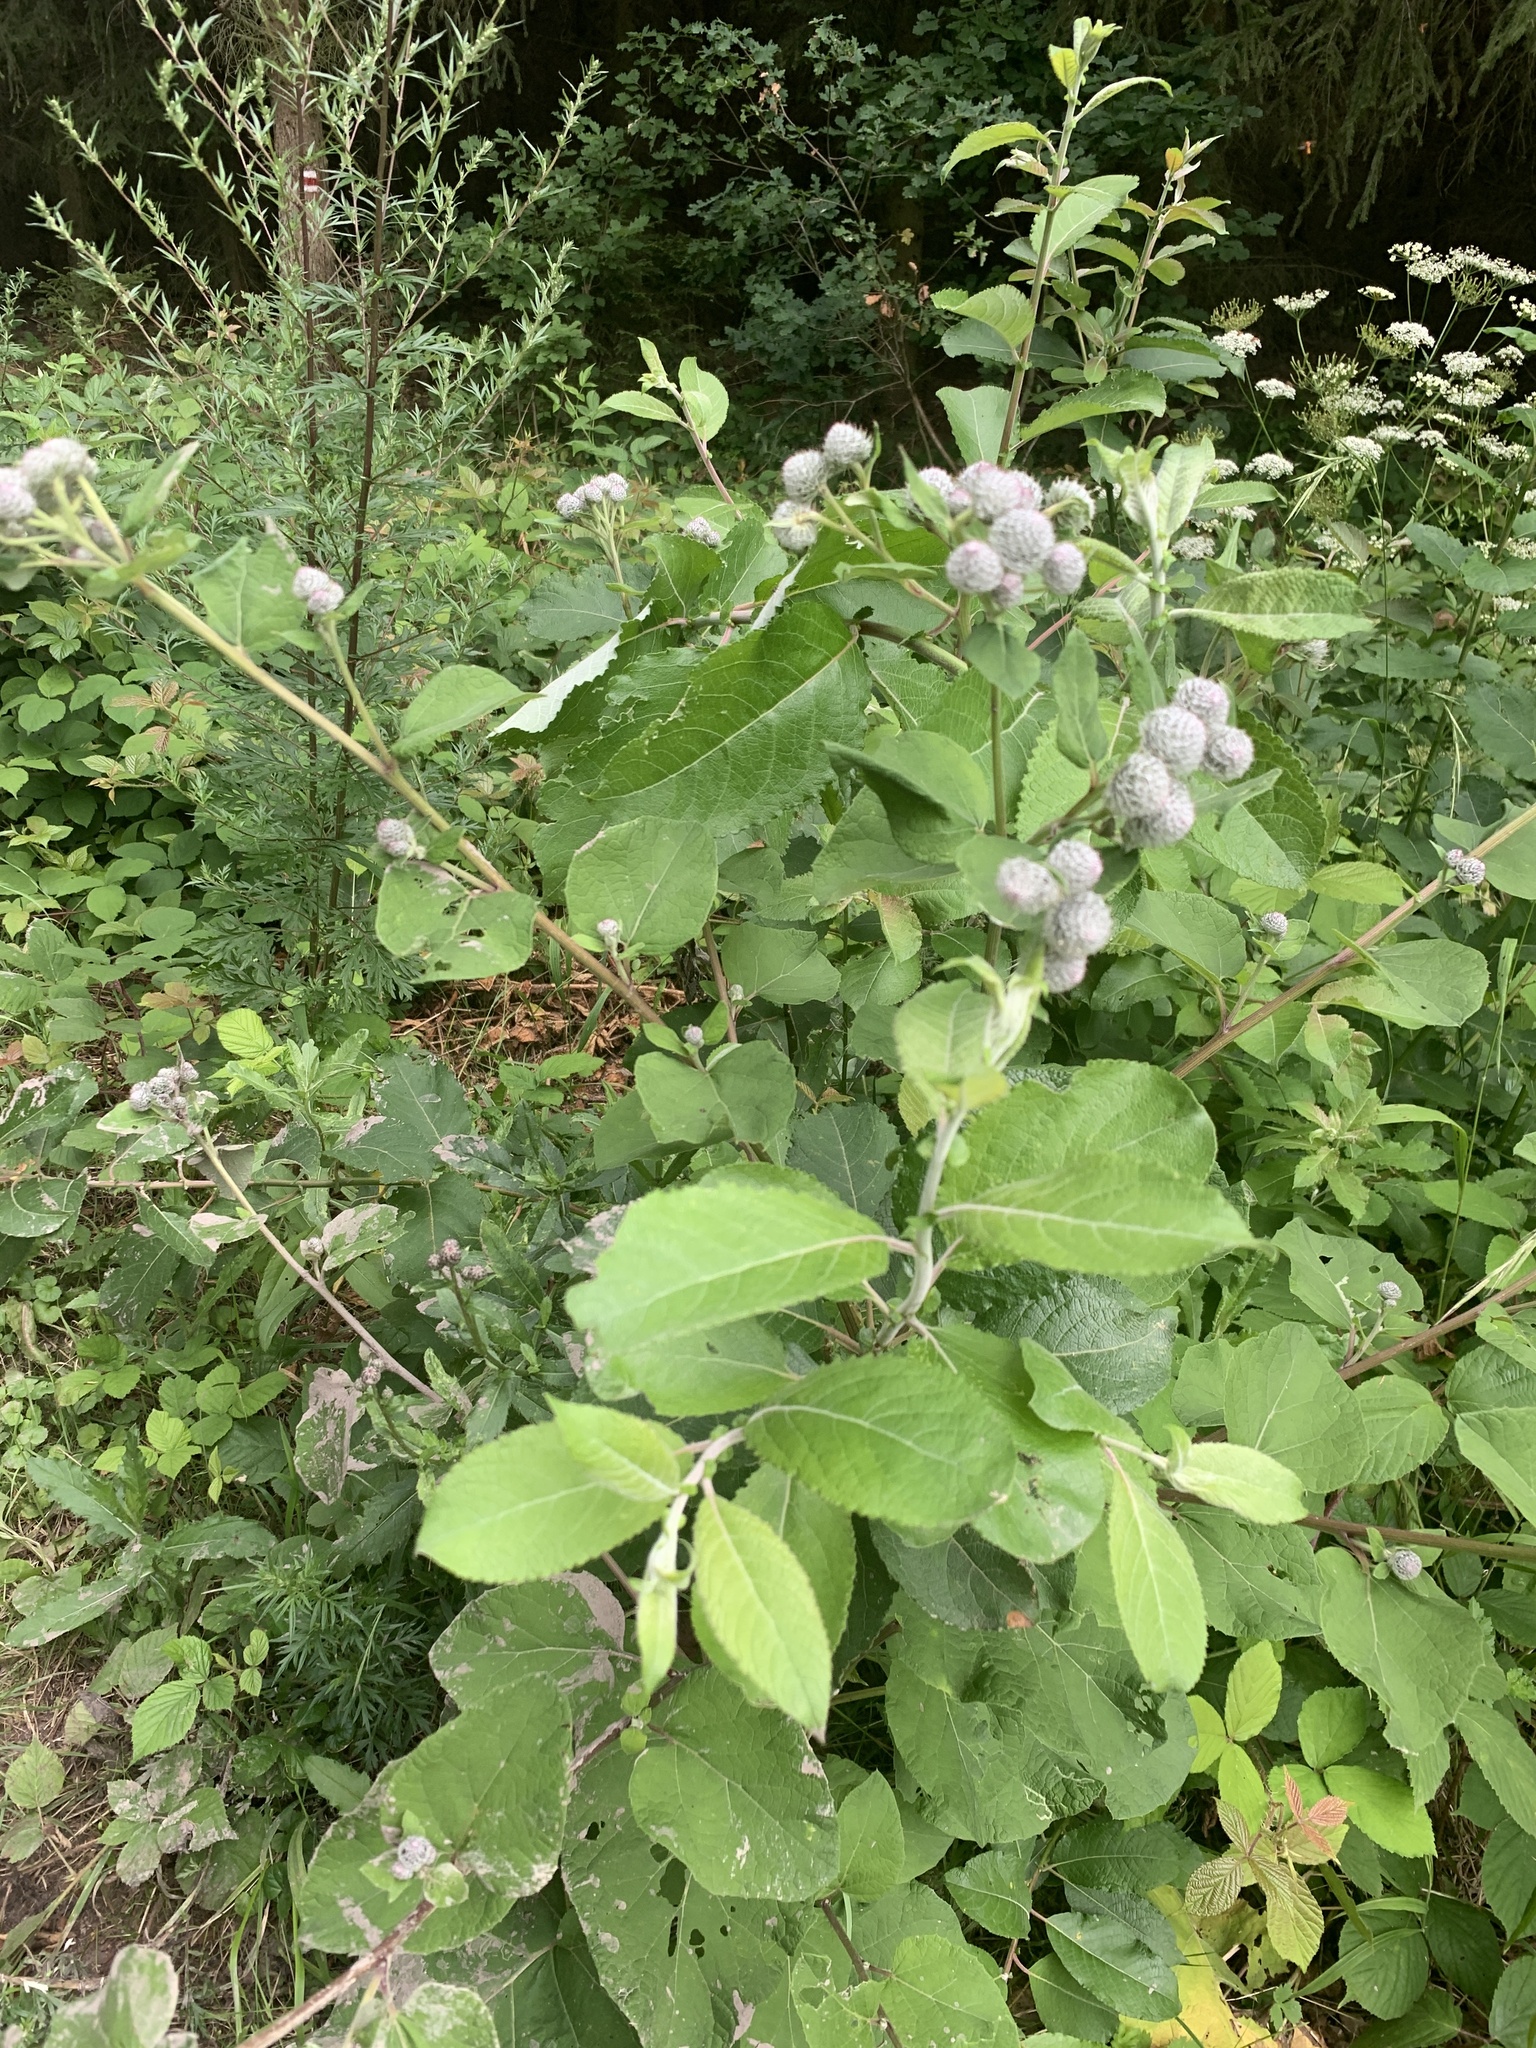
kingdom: Plantae
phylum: Tracheophyta
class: Magnoliopsida
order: Asterales
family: Asteraceae
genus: Arctium
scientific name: Arctium tomentosum
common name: Woolly burdock
